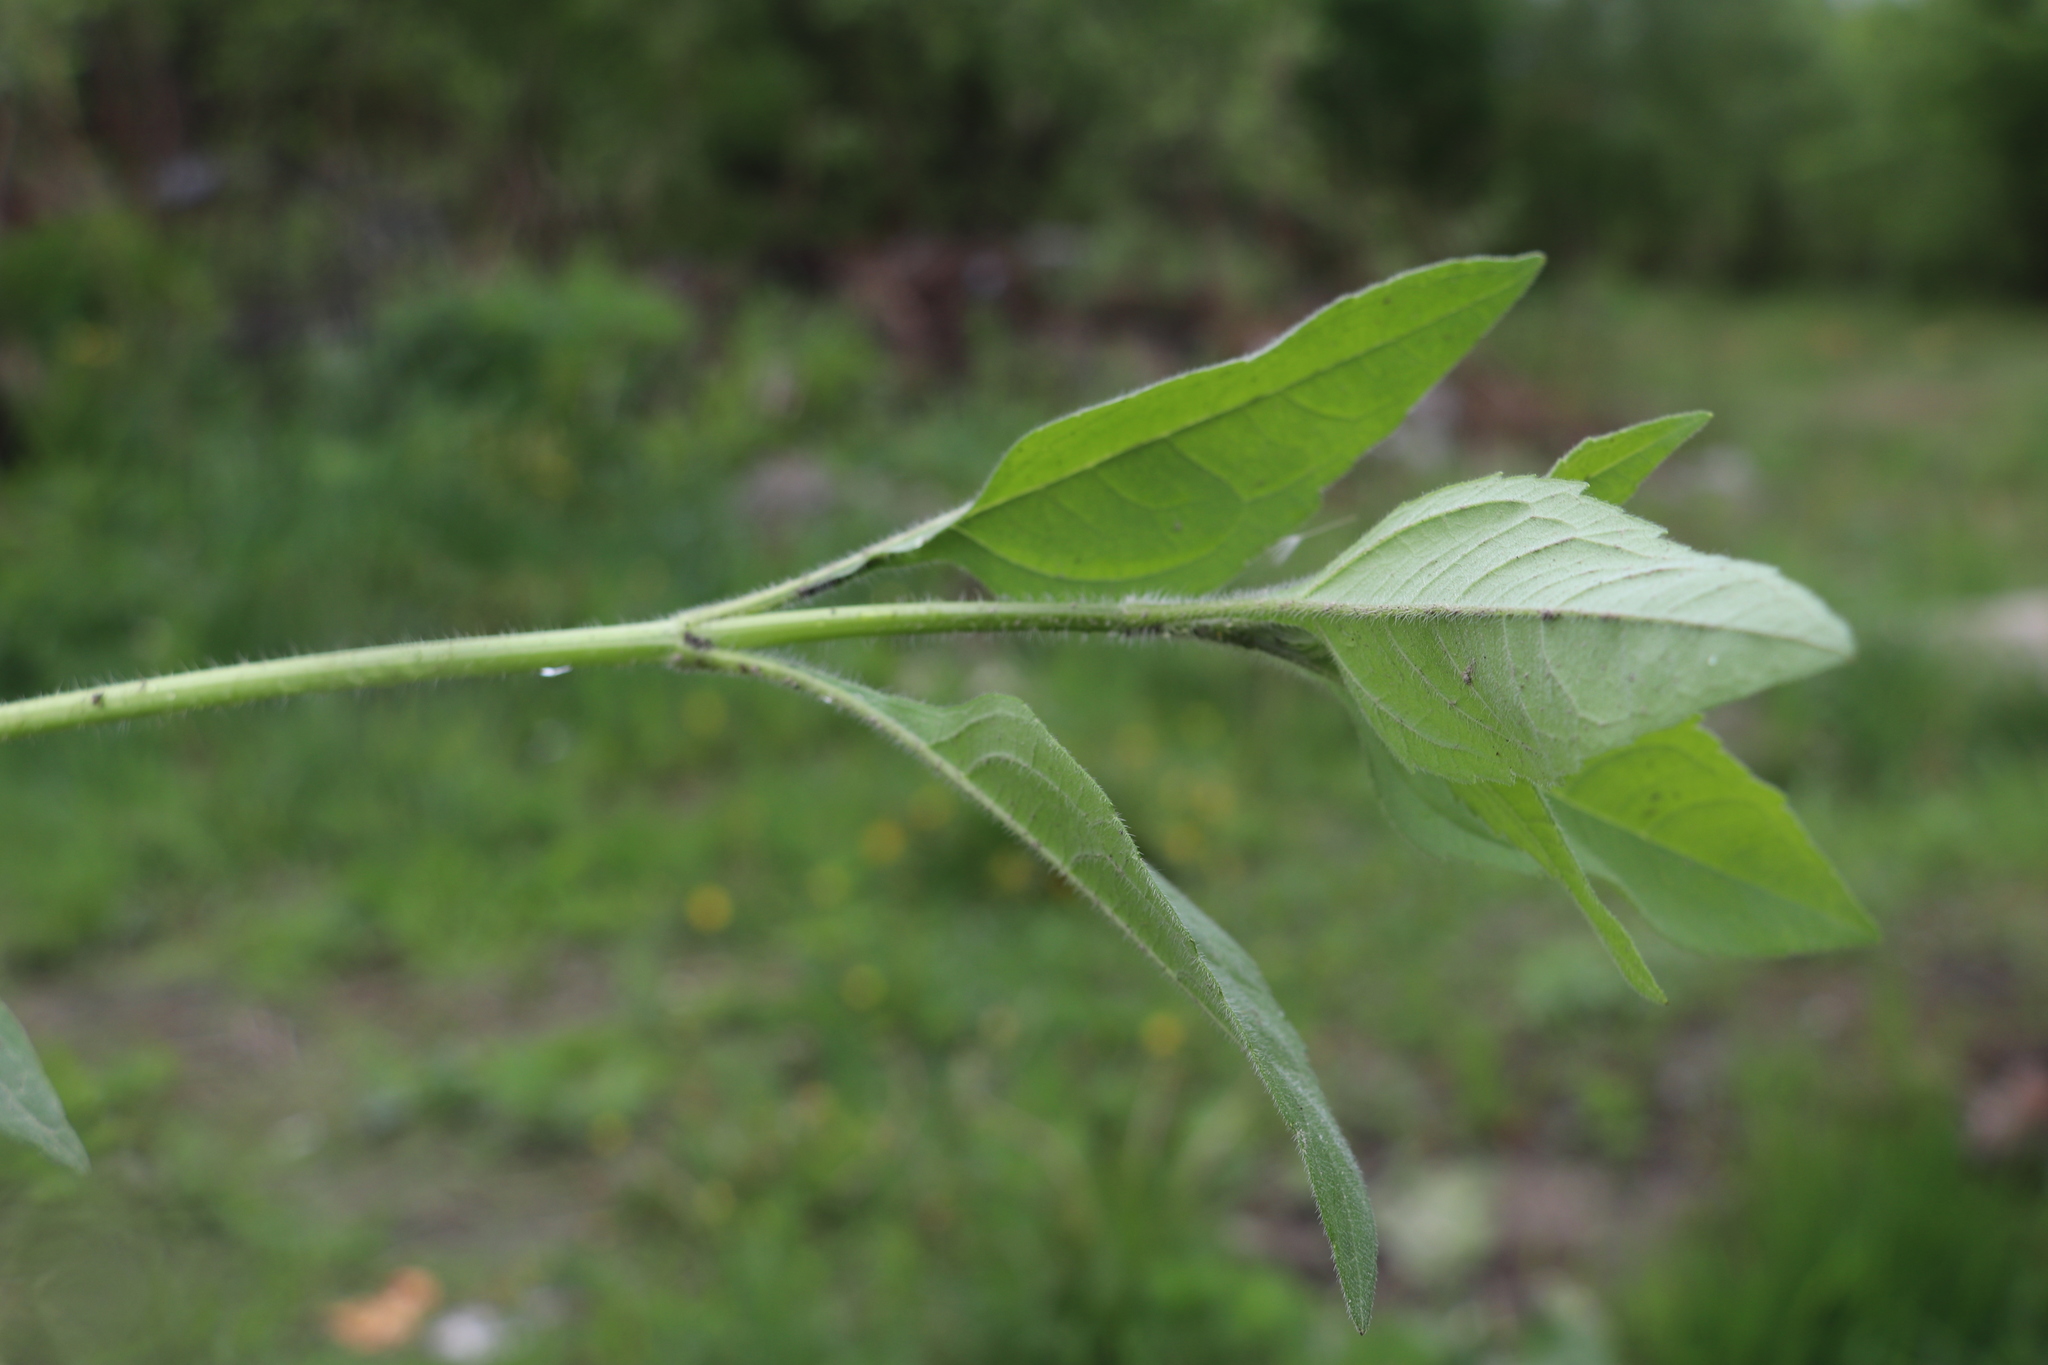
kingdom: Plantae
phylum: Tracheophyta
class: Magnoliopsida
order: Asterales
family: Asteraceae
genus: Helianthus
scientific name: Helianthus tuberosus
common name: Jerusalem artichoke
